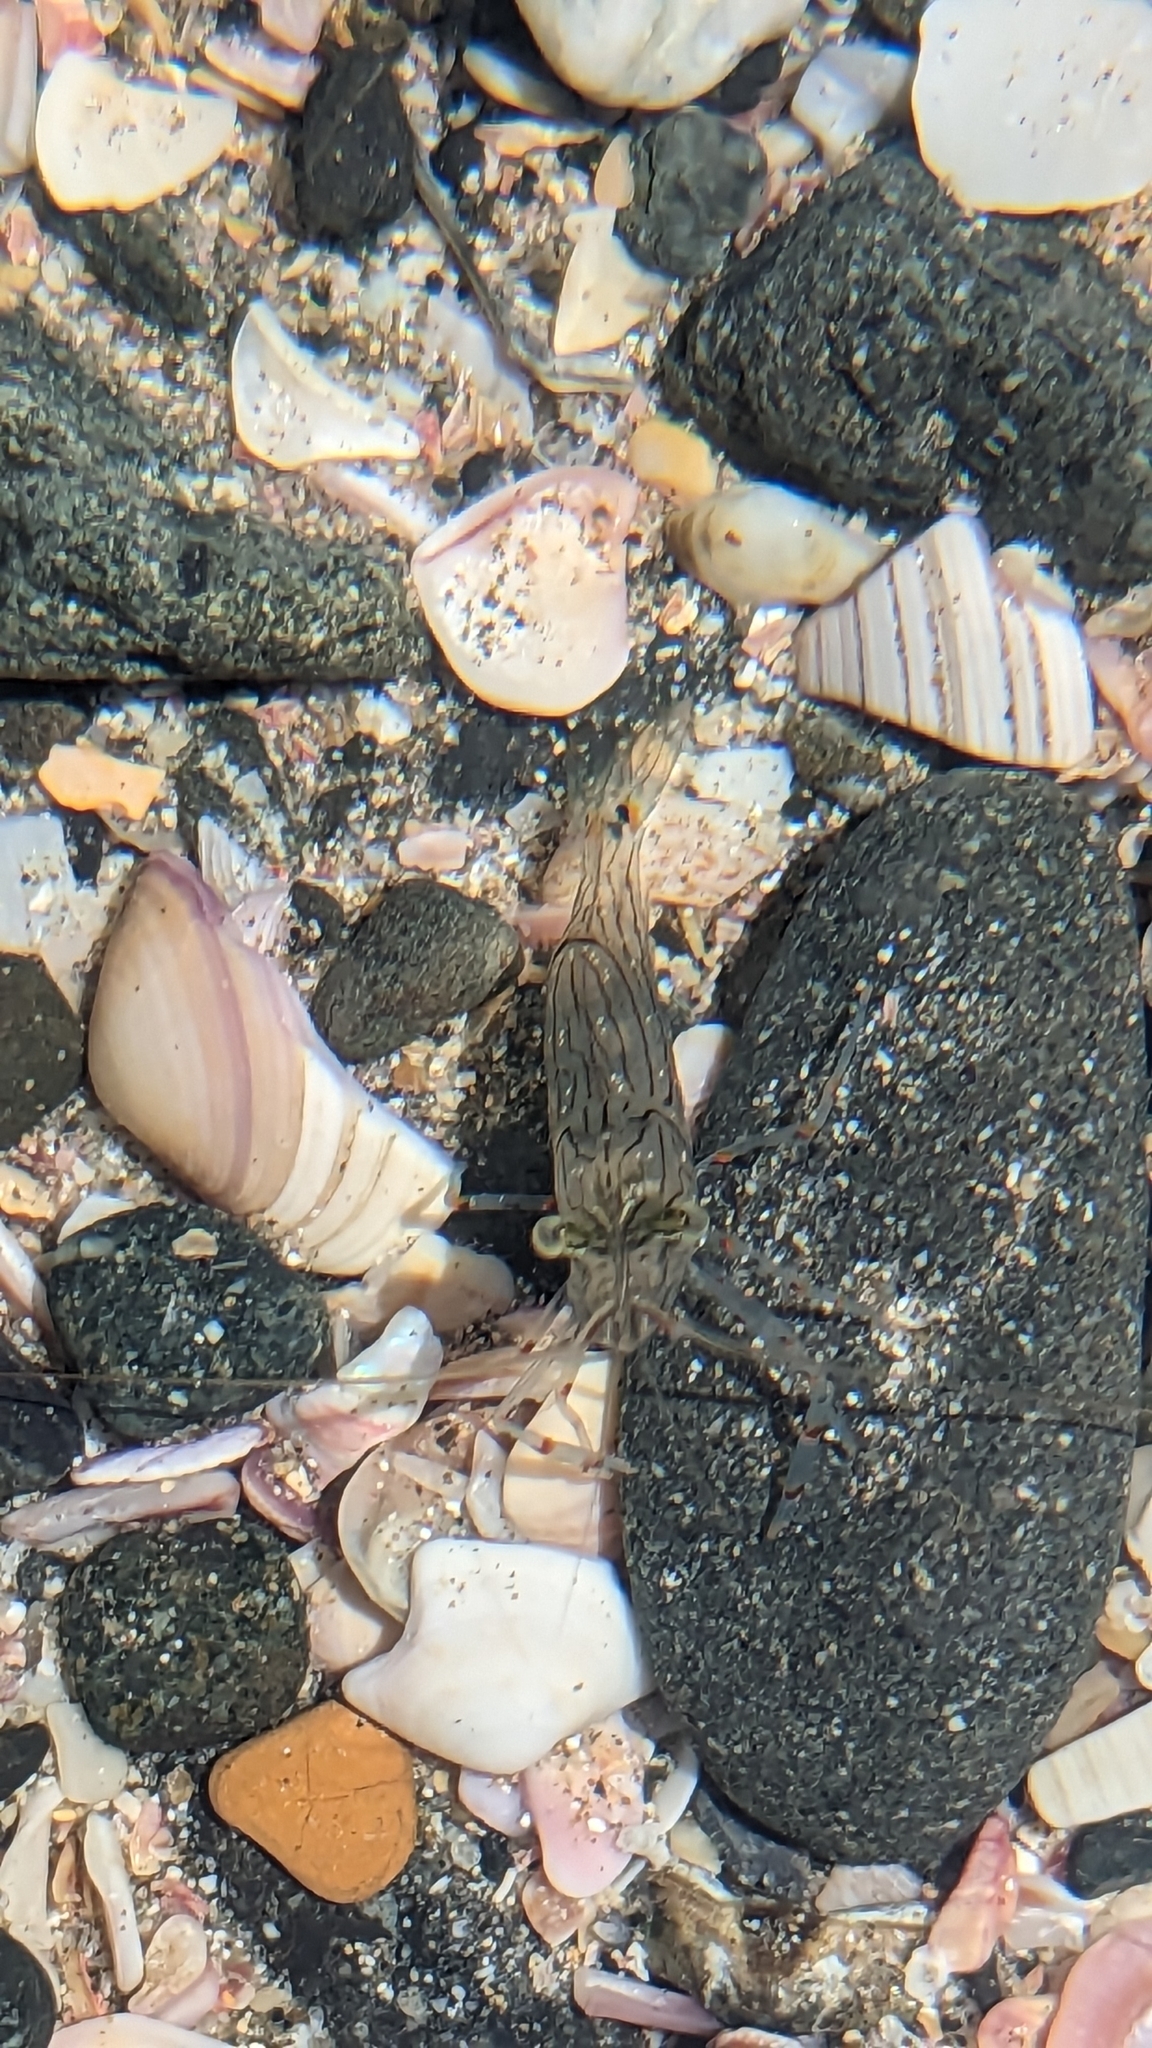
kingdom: Animalia
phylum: Arthropoda
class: Malacostraca
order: Decapoda
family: Palaemonidae
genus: Palaemon
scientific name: Palaemon affinis
